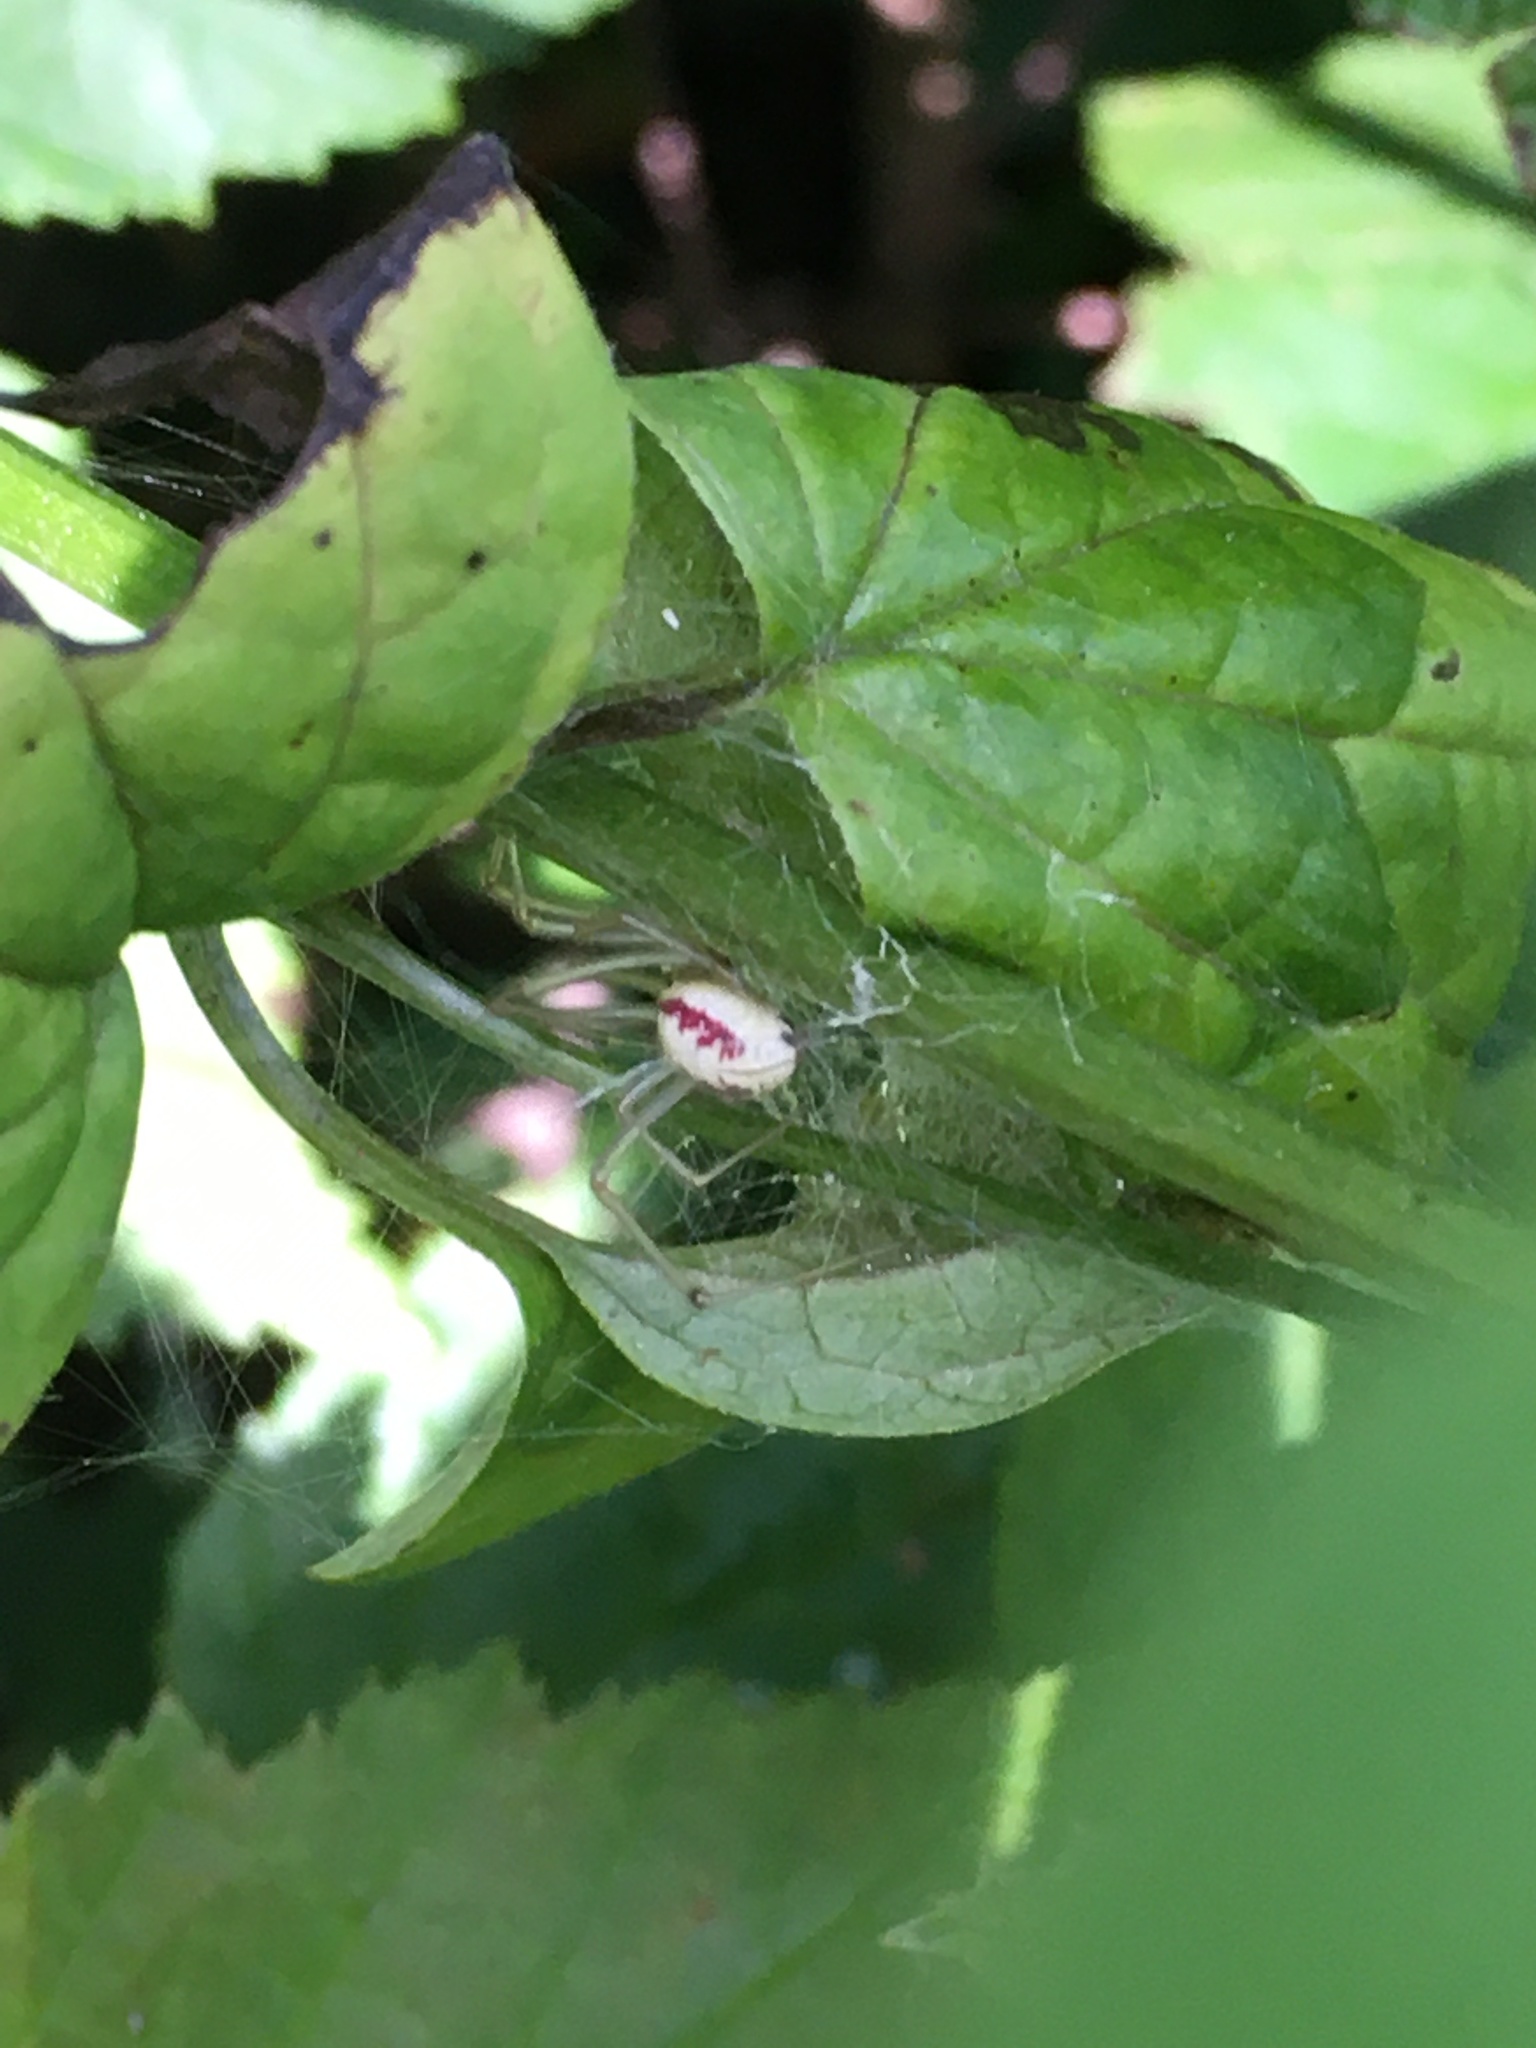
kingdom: Animalia
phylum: Arthropoda
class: Arachnida
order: Araneae
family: Theridiidae
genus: Enoplognatha
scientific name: Enoplognatha ovata
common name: Common candy-striped spider
